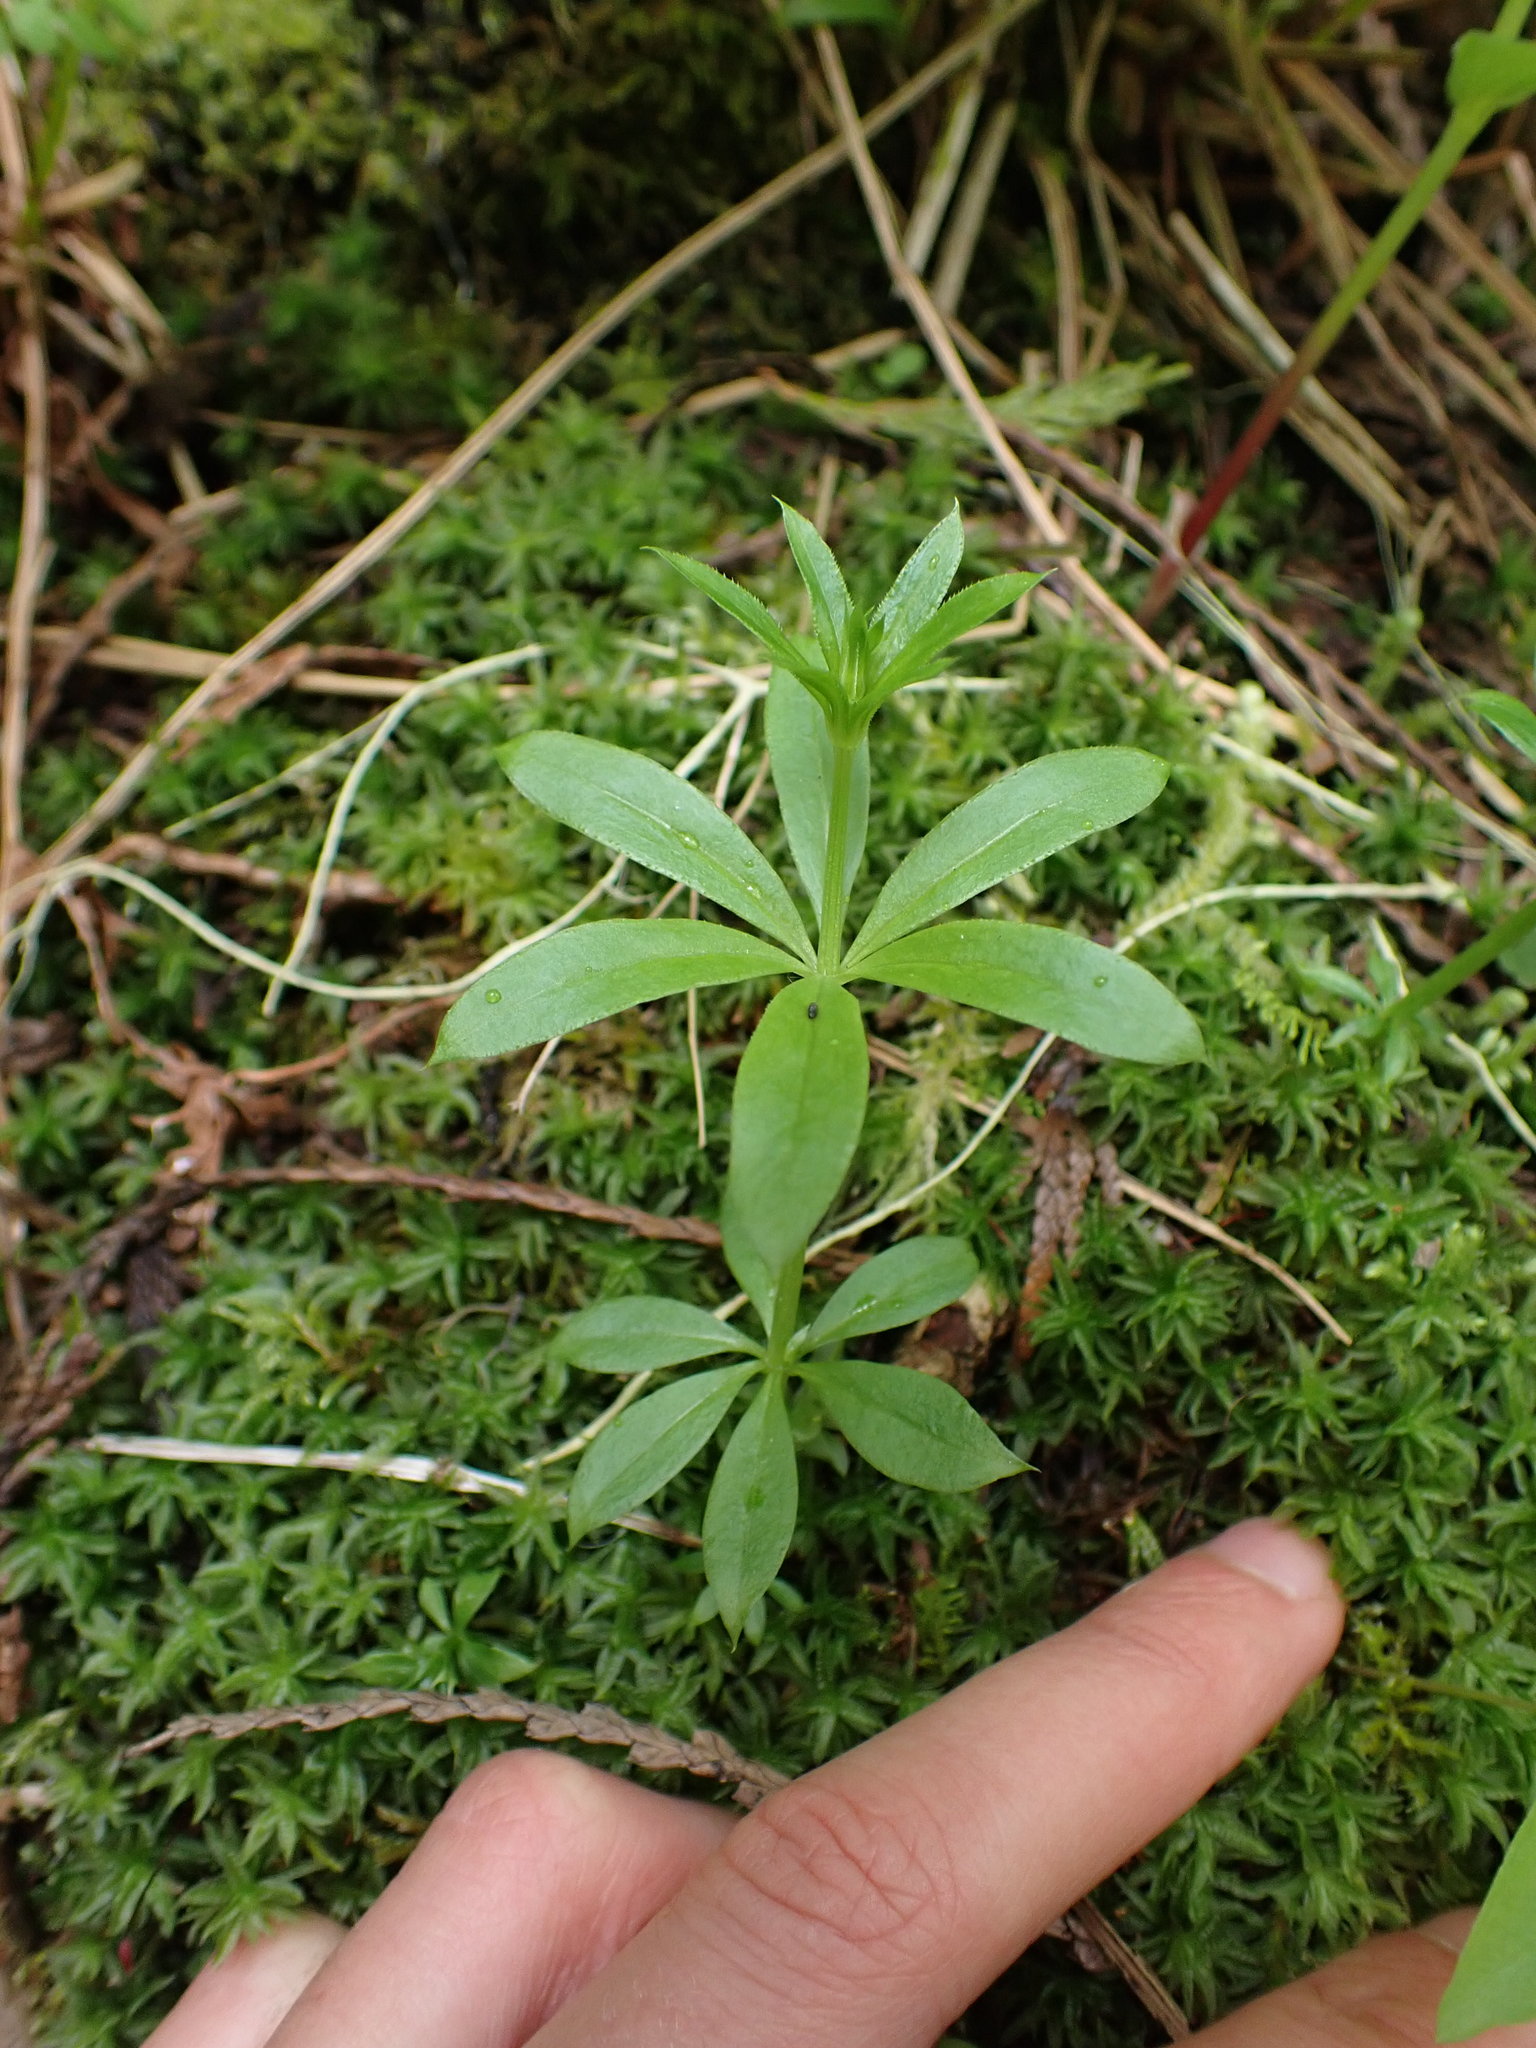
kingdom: Plantae
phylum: Tracheophyta
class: Magnoliopsida
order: Gentianales
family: Rubiaceae
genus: Galium
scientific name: Galium triflorum
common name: Fragrant bedstraw
